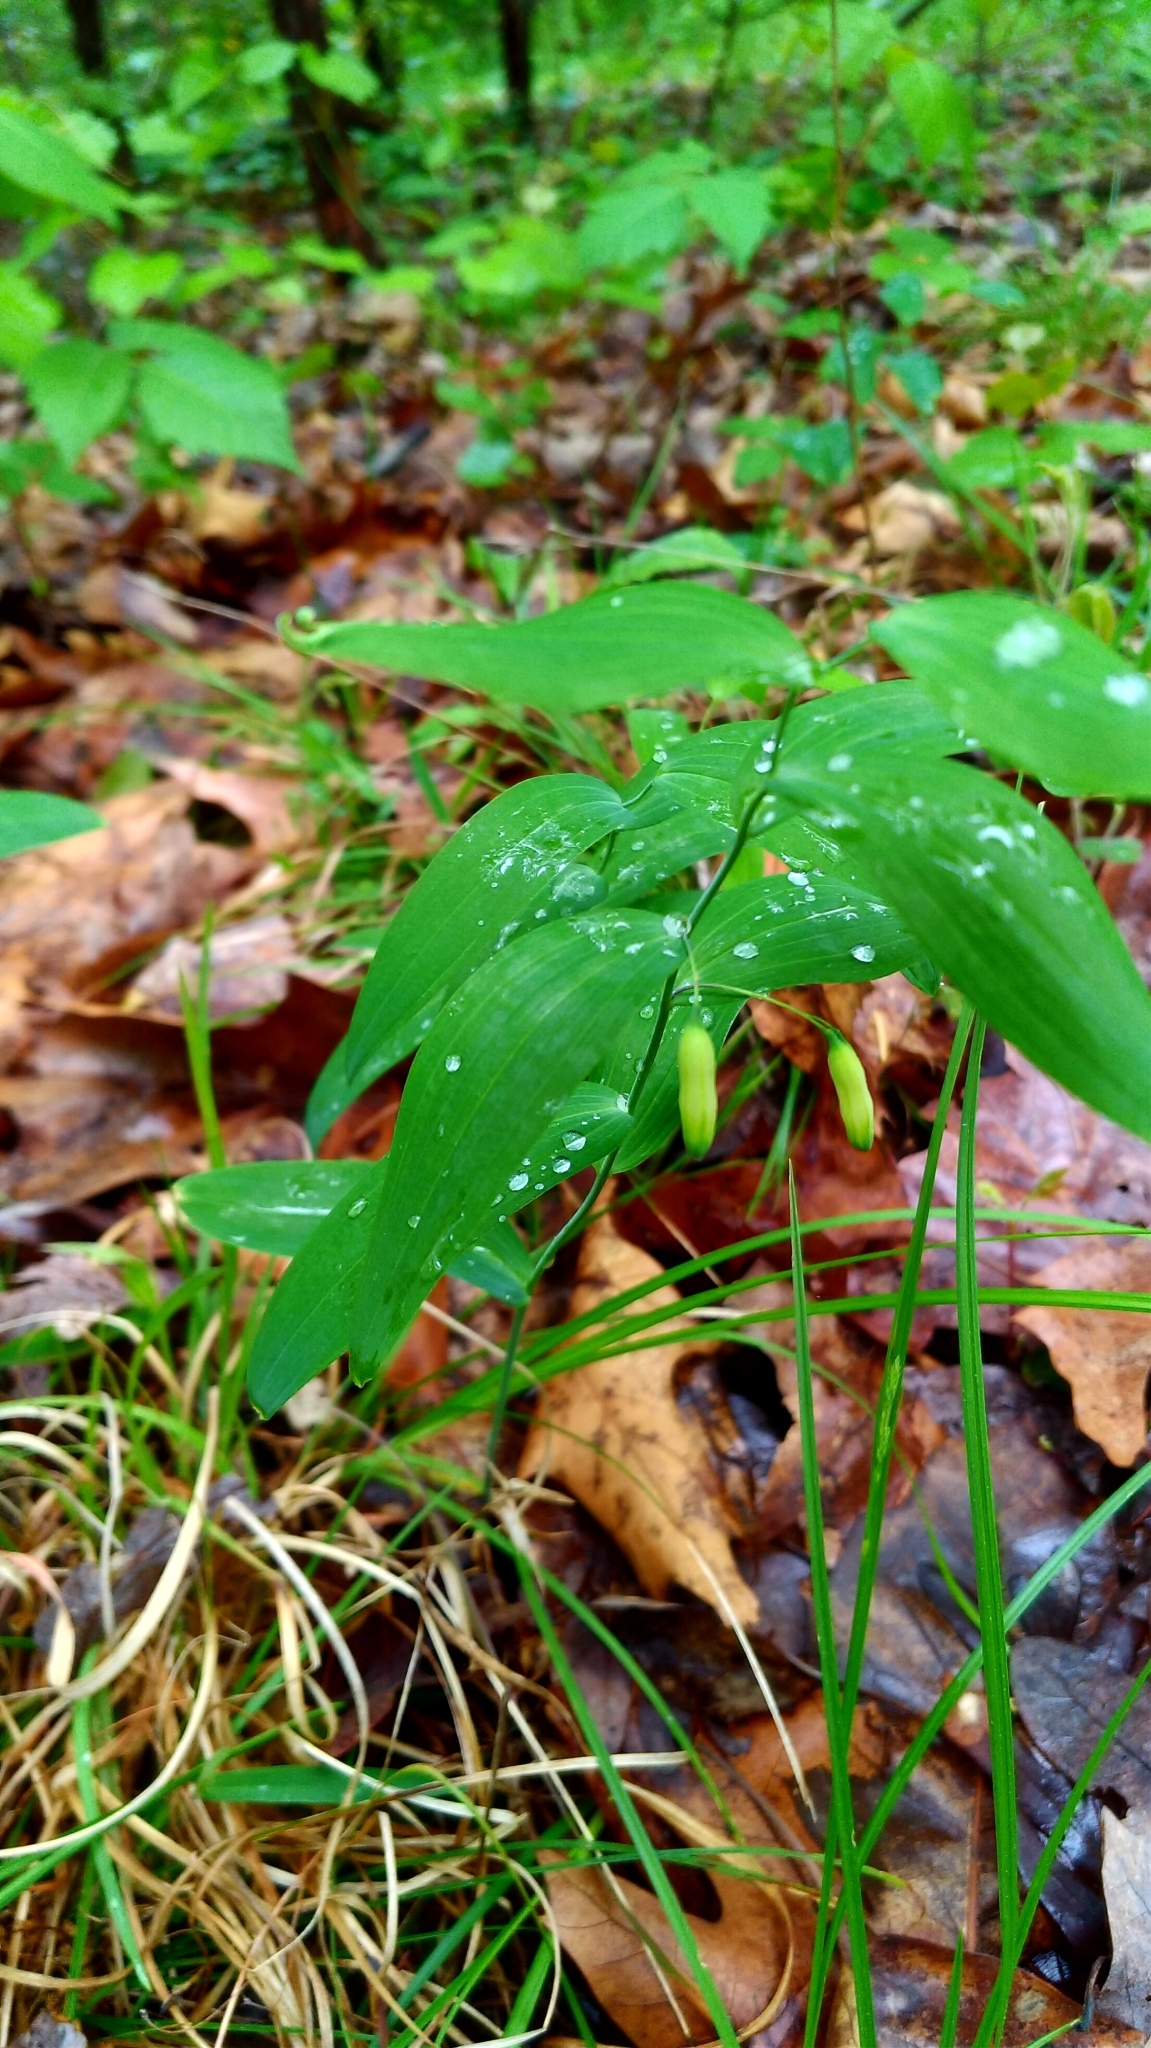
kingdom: Plantae
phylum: Tracheophyta
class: Liliopsida
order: Asparagales
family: Asparagaceae
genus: Polygonatum
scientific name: Polygonatum biflorum
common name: American solomon's-seal
